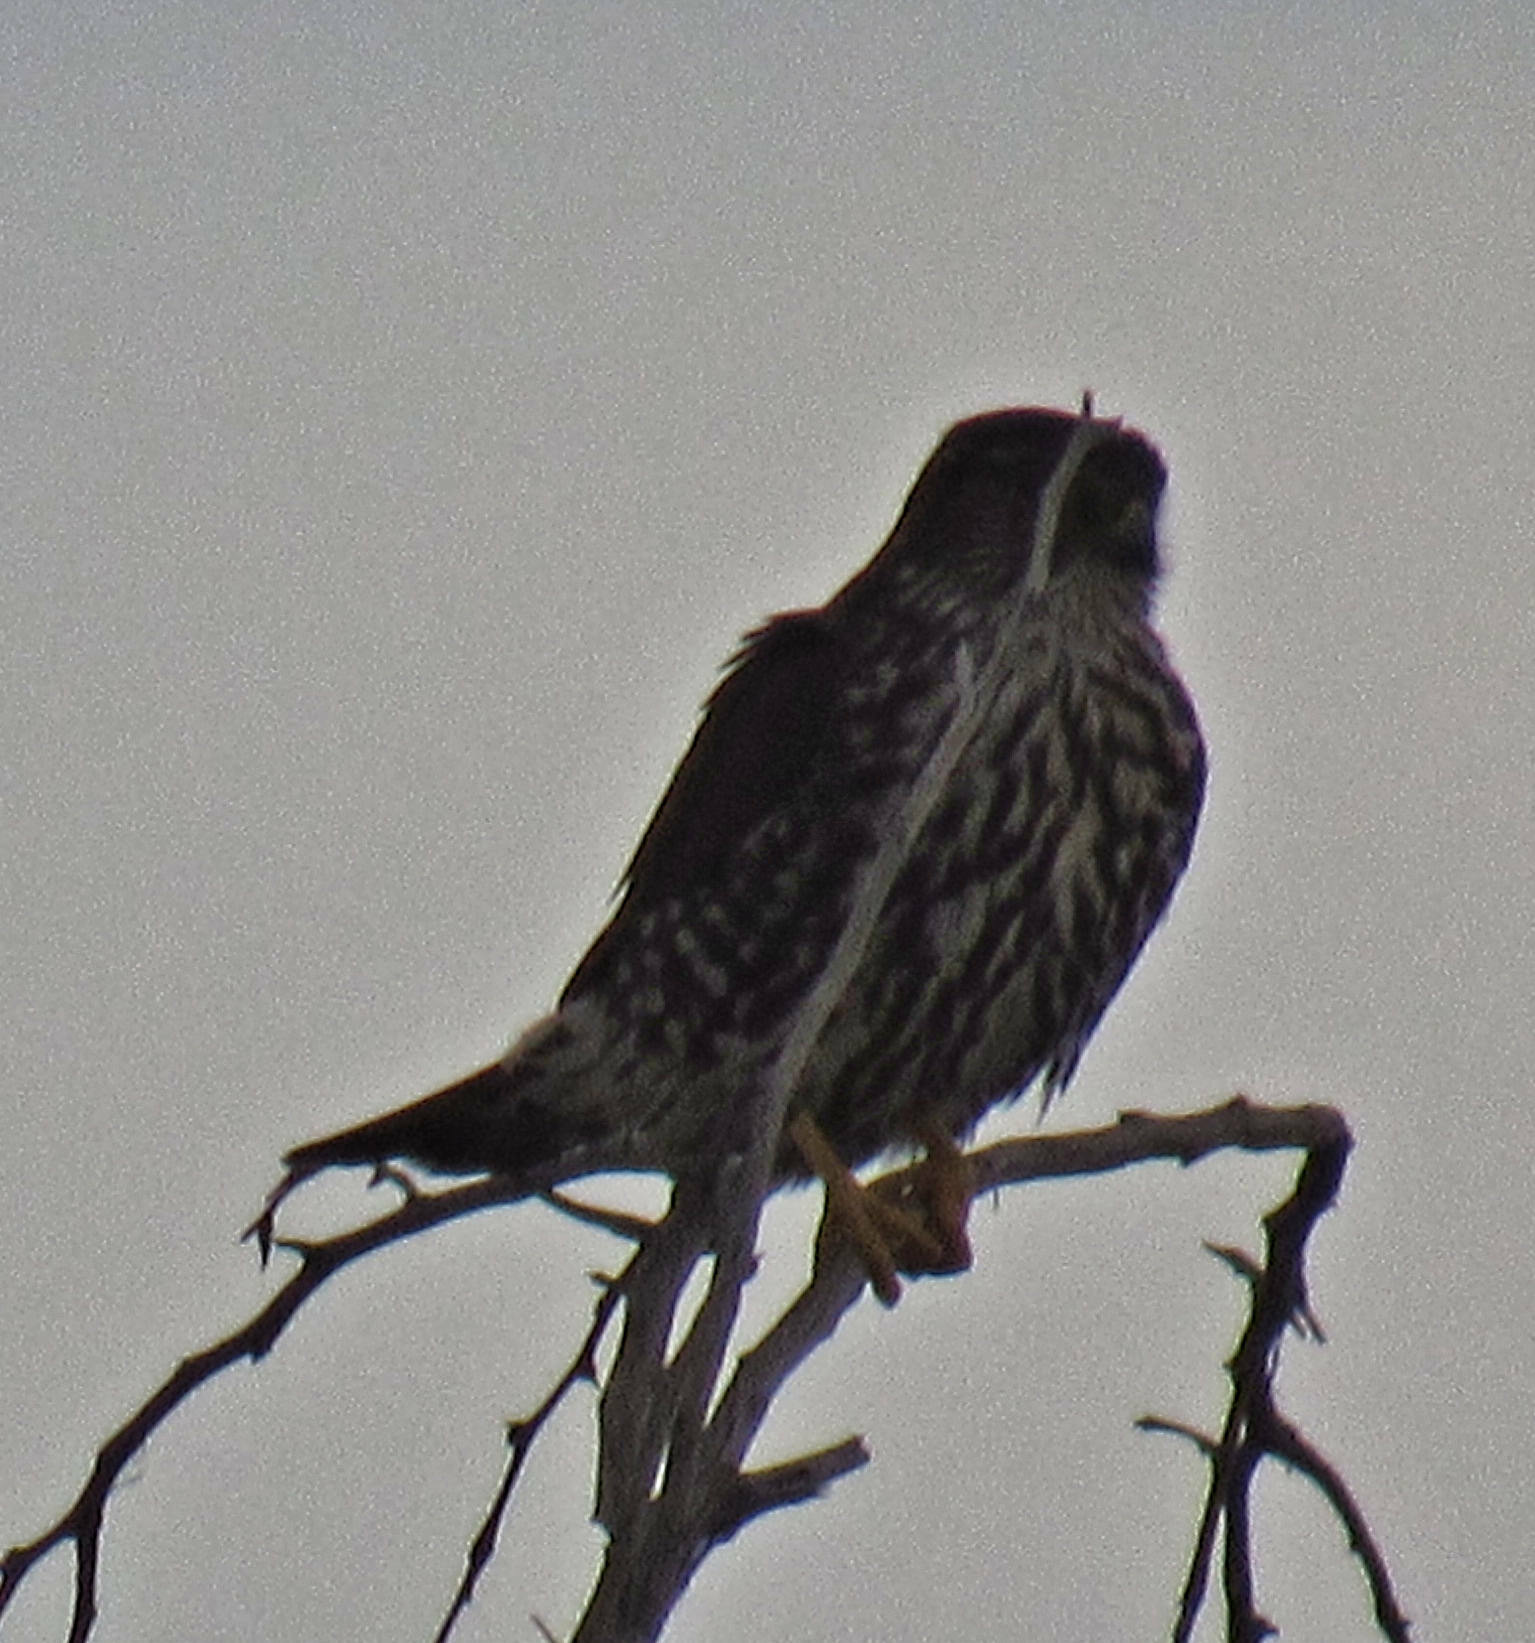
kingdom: Animalia
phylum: Chordata
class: Aves
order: Falconiformes
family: Falconidae
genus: Falco
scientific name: Falco columbarius
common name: Merlin
